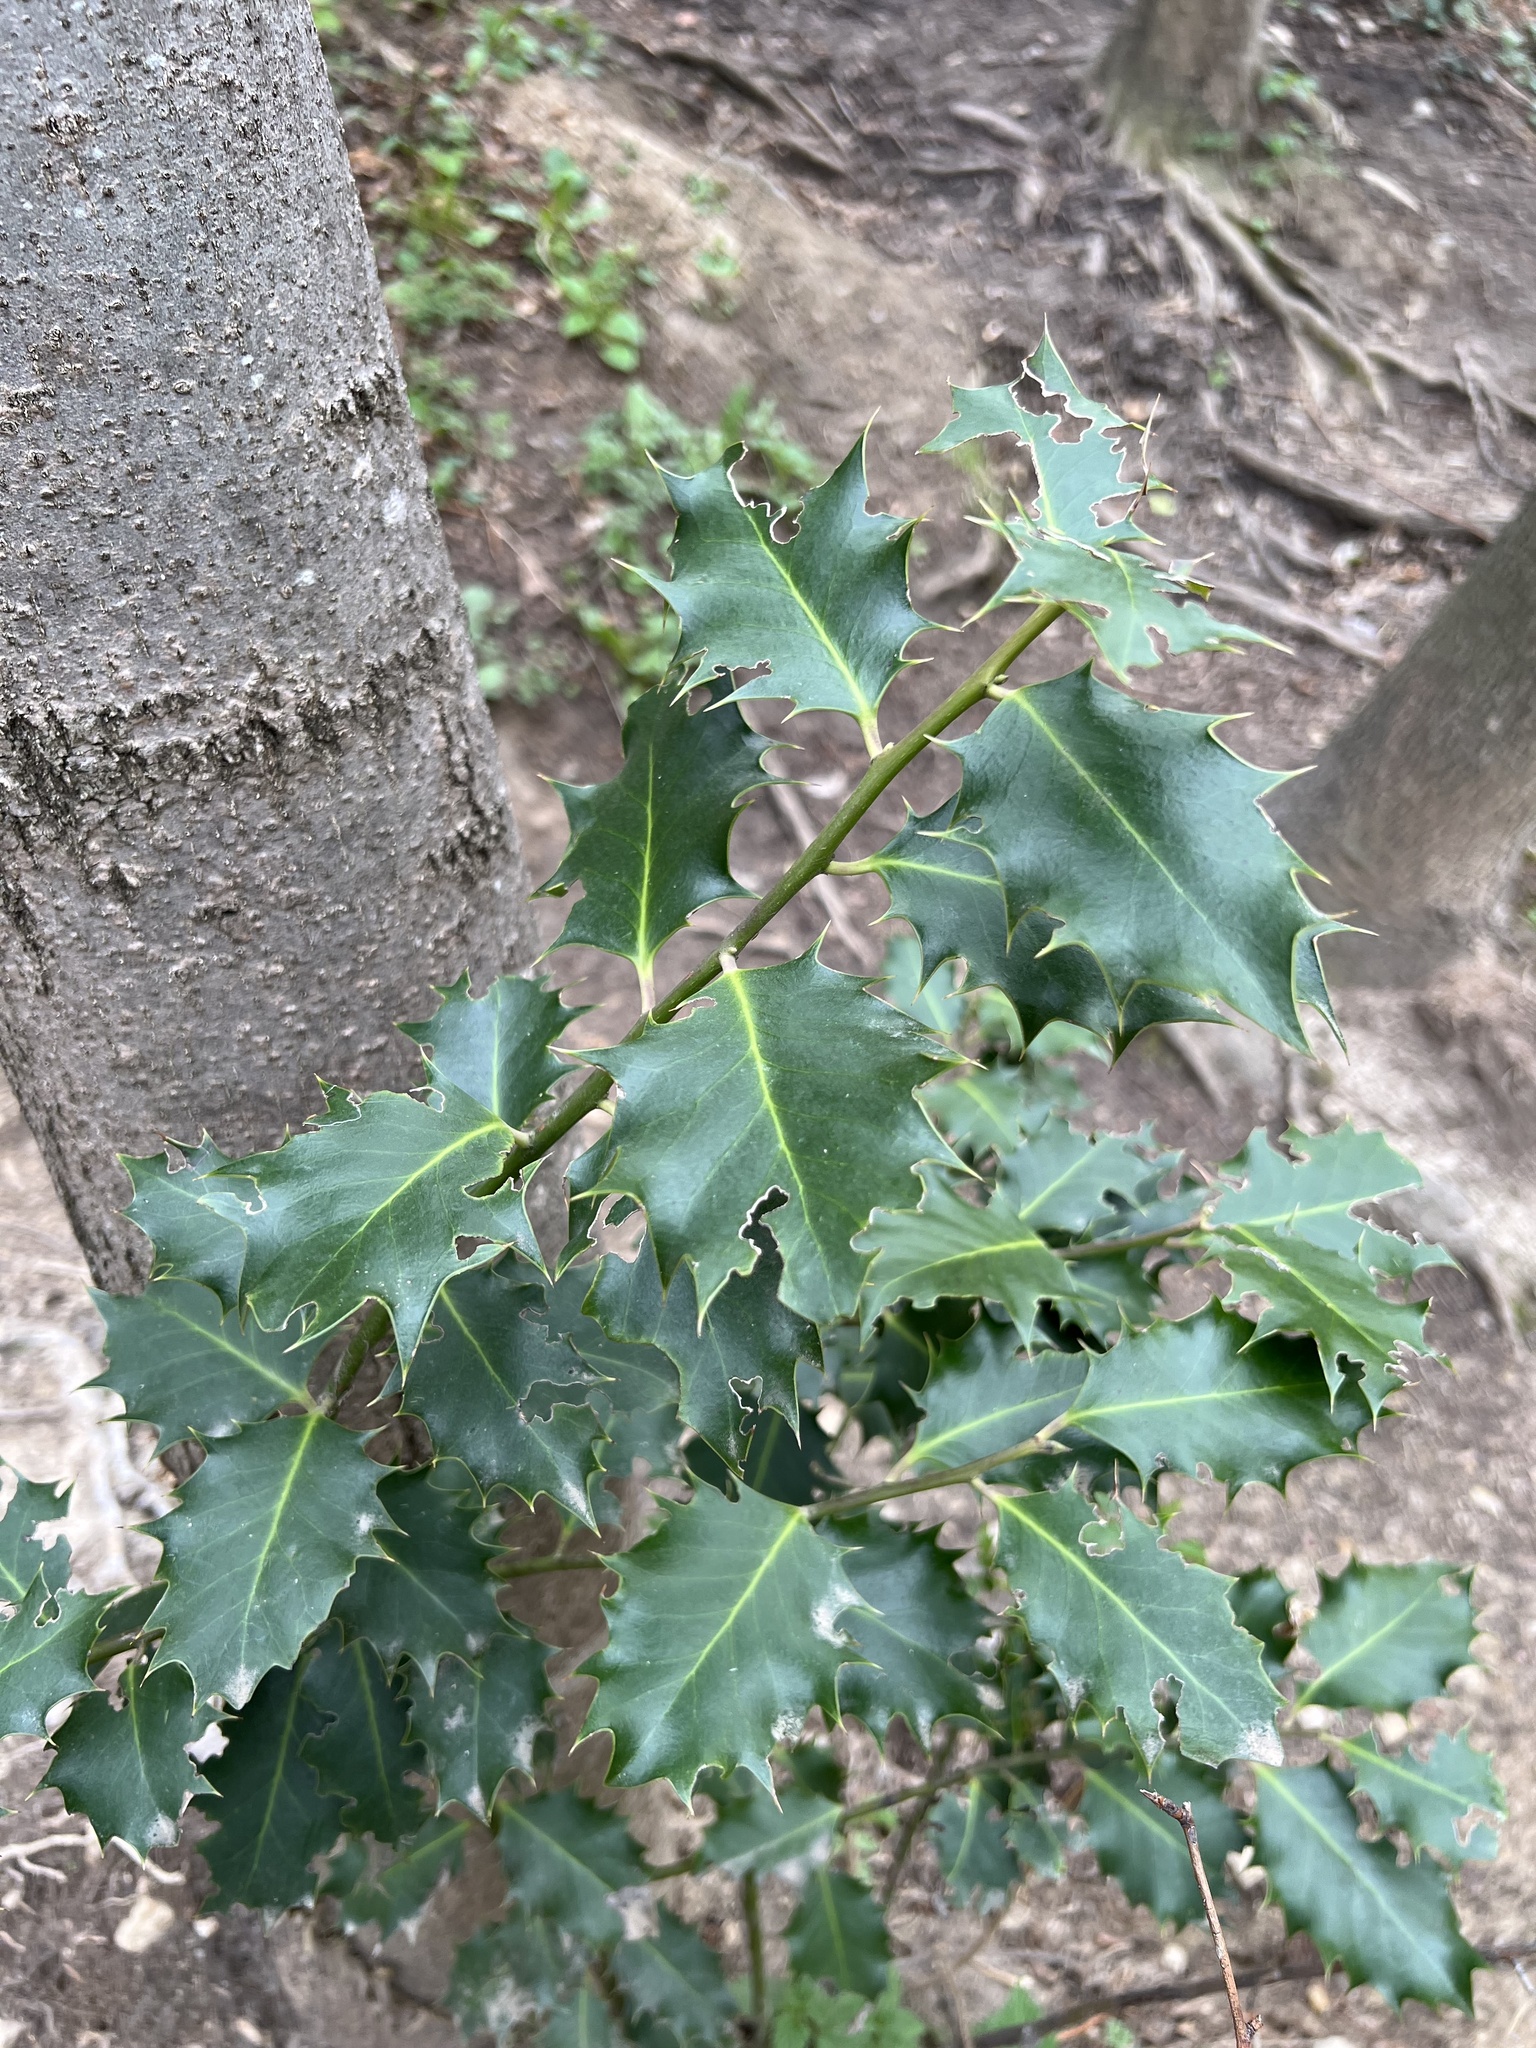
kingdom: Plantae
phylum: Tracheophyta
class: Magnoliopsida
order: Aquifoliales
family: Aquifoliaceae
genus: Ilex
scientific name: Ilex aquifolium
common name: English holly
